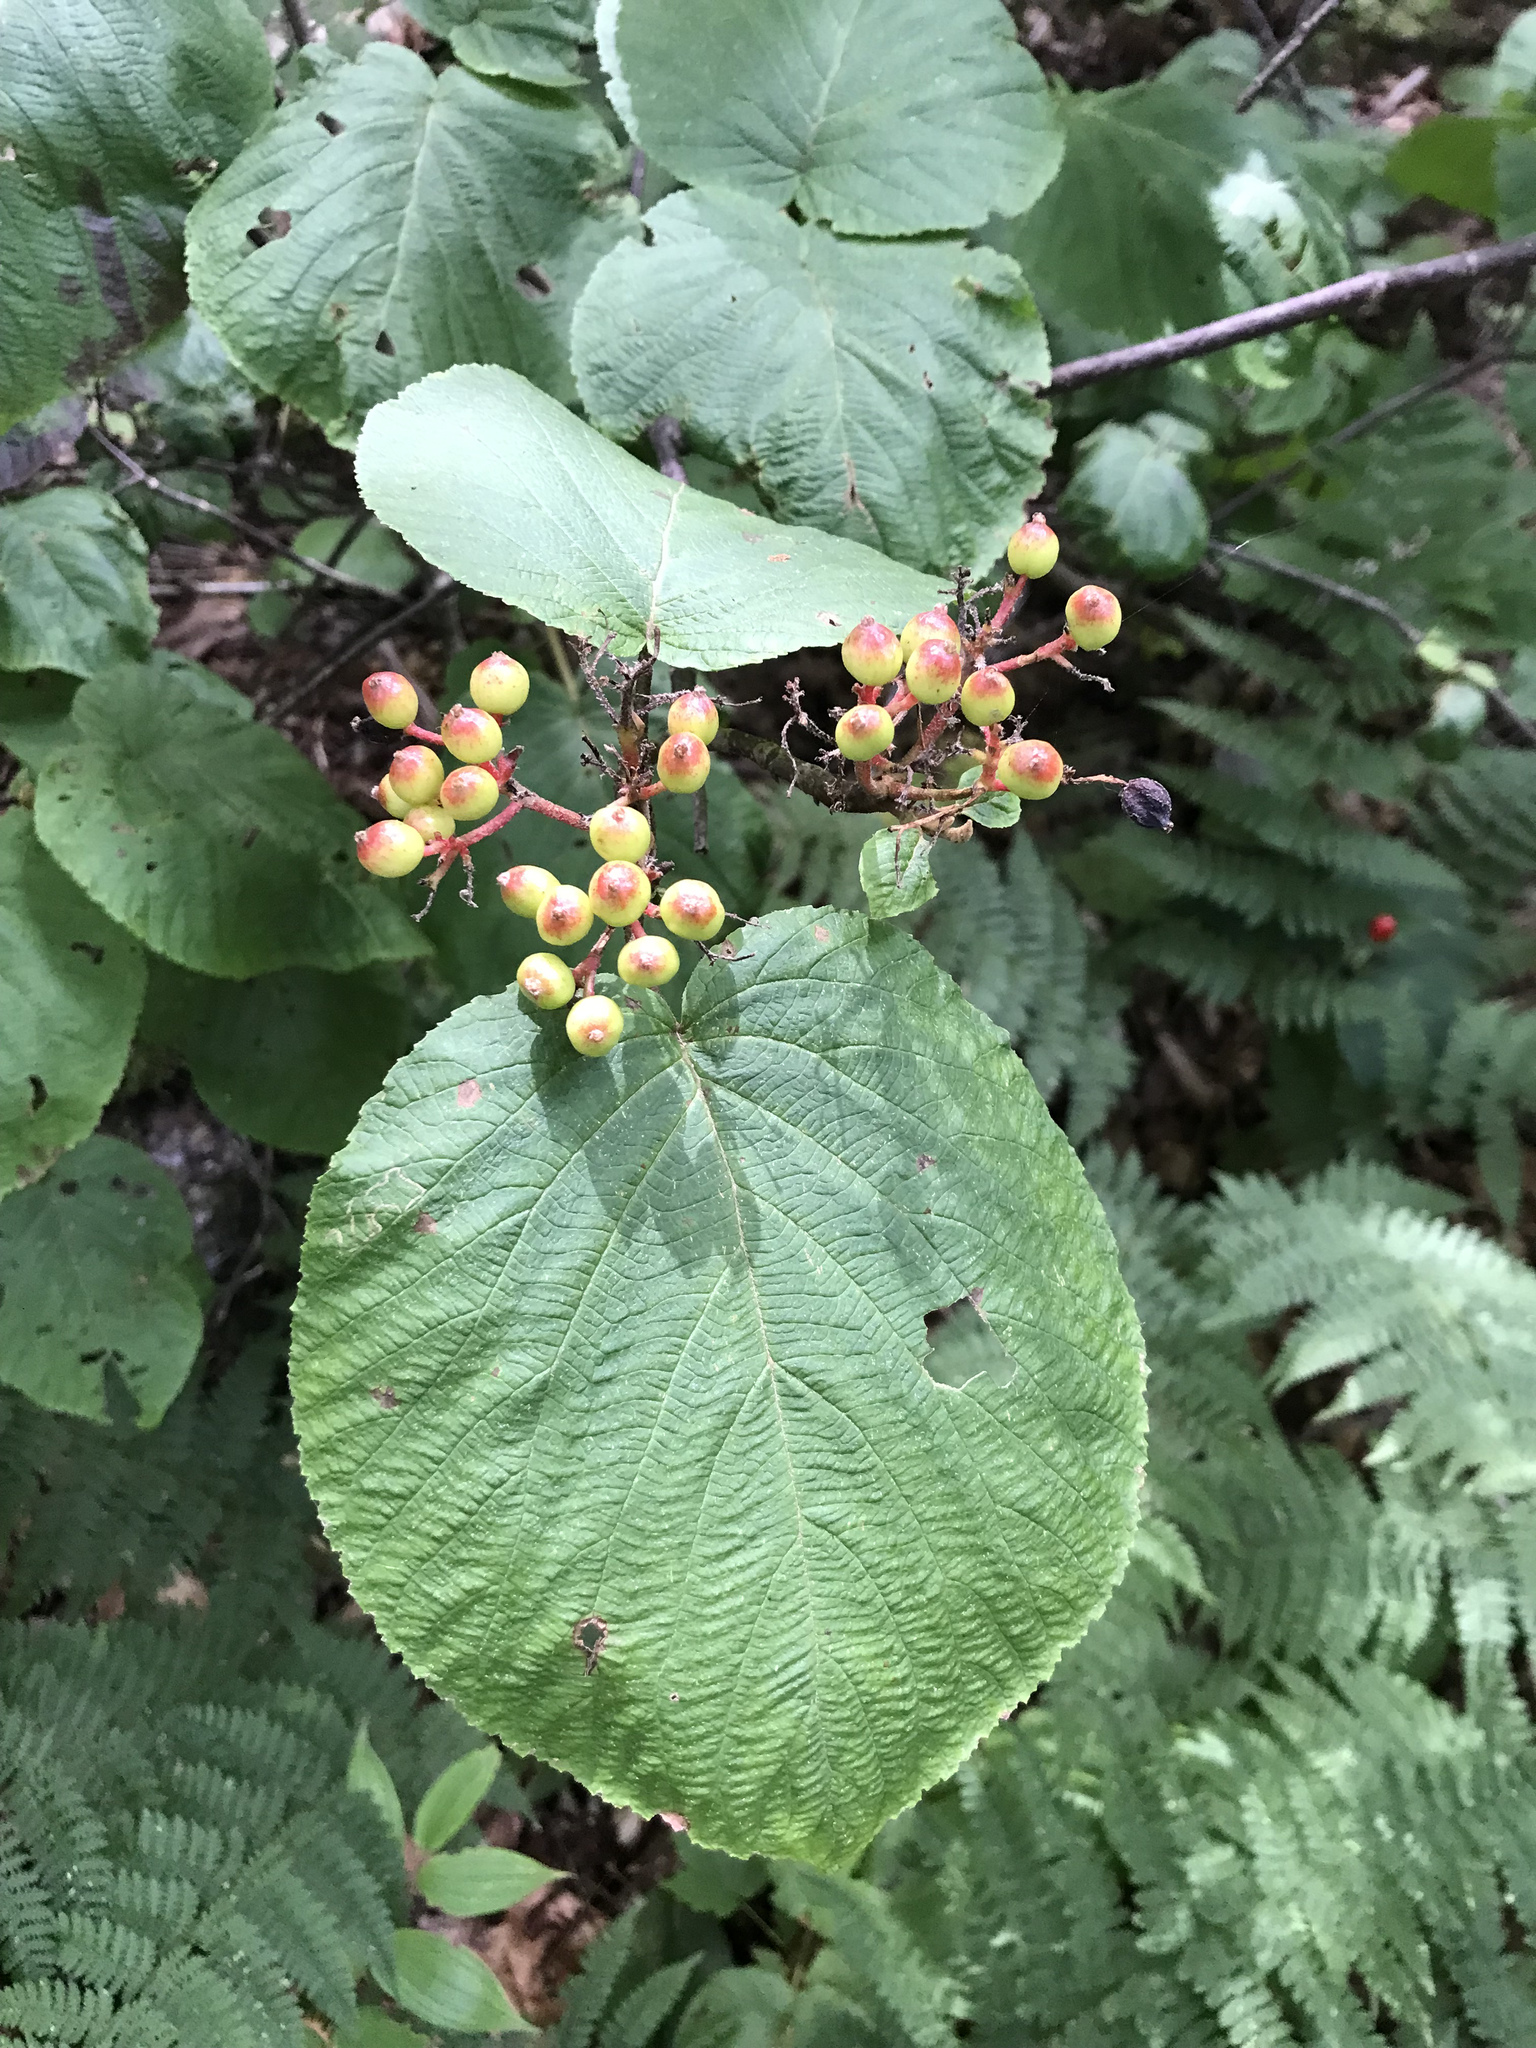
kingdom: Plantae
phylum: Tracheophyta
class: Magnoliopsida
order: Dipsacales
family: Viburnaceae
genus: Viburnum
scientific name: Viburnum lantanoides
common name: Hobblebush
